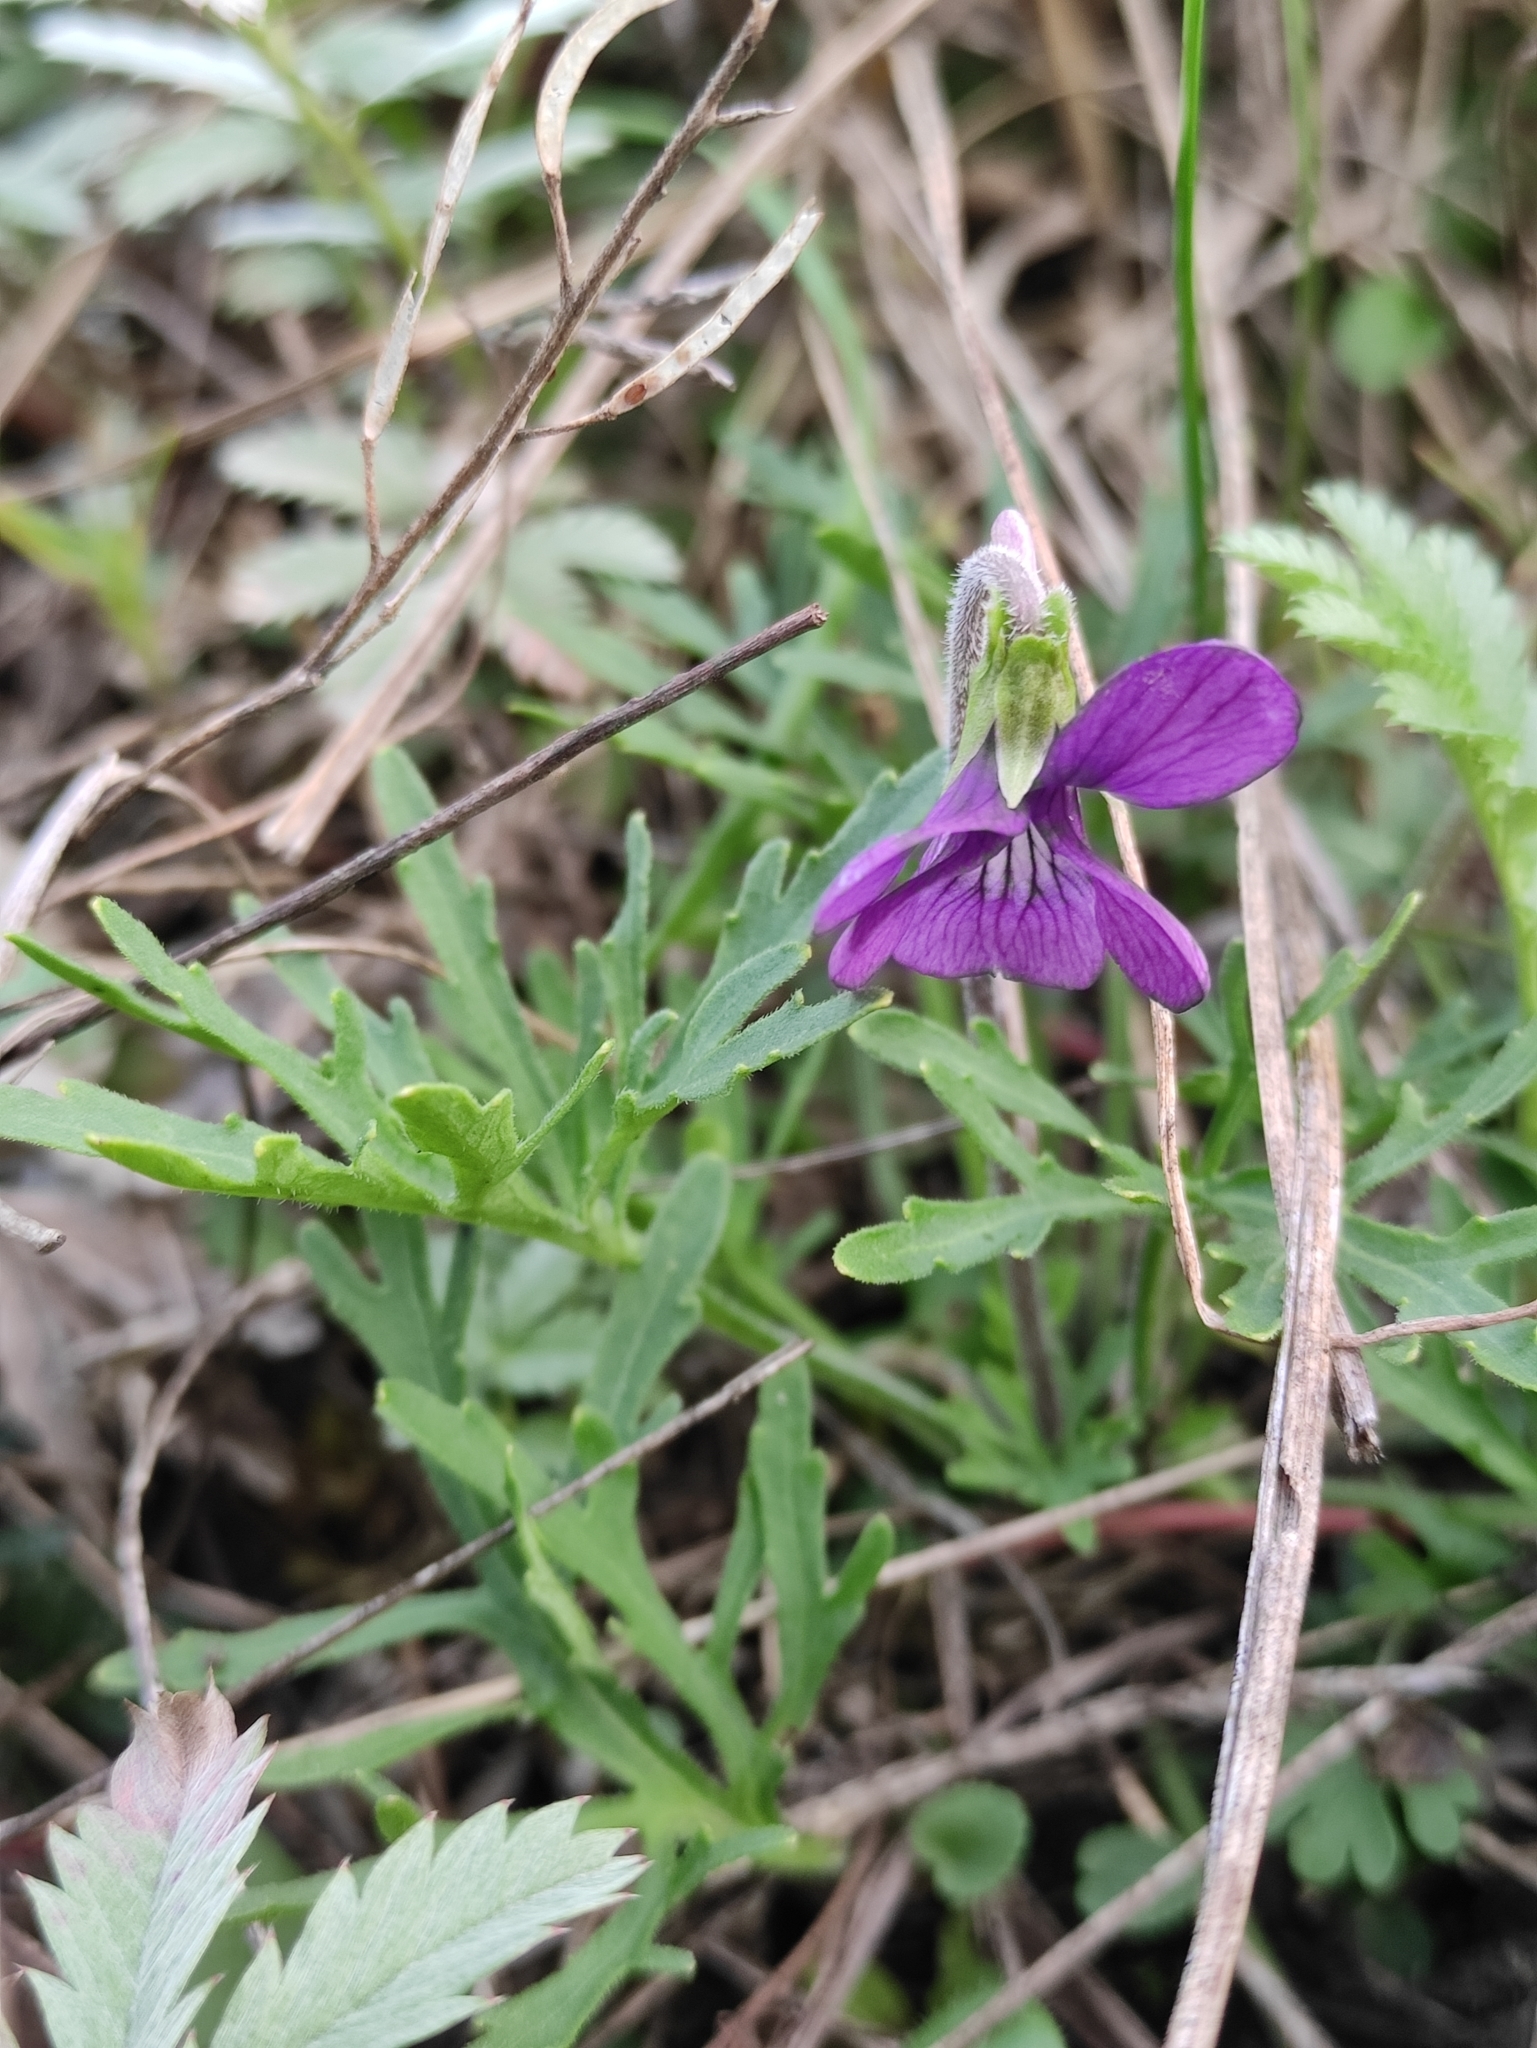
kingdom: Plantae
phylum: Tracheophyta
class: Magnoliopsida
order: Malpighiales
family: Violaceae
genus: Viola
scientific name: Viola multifida
